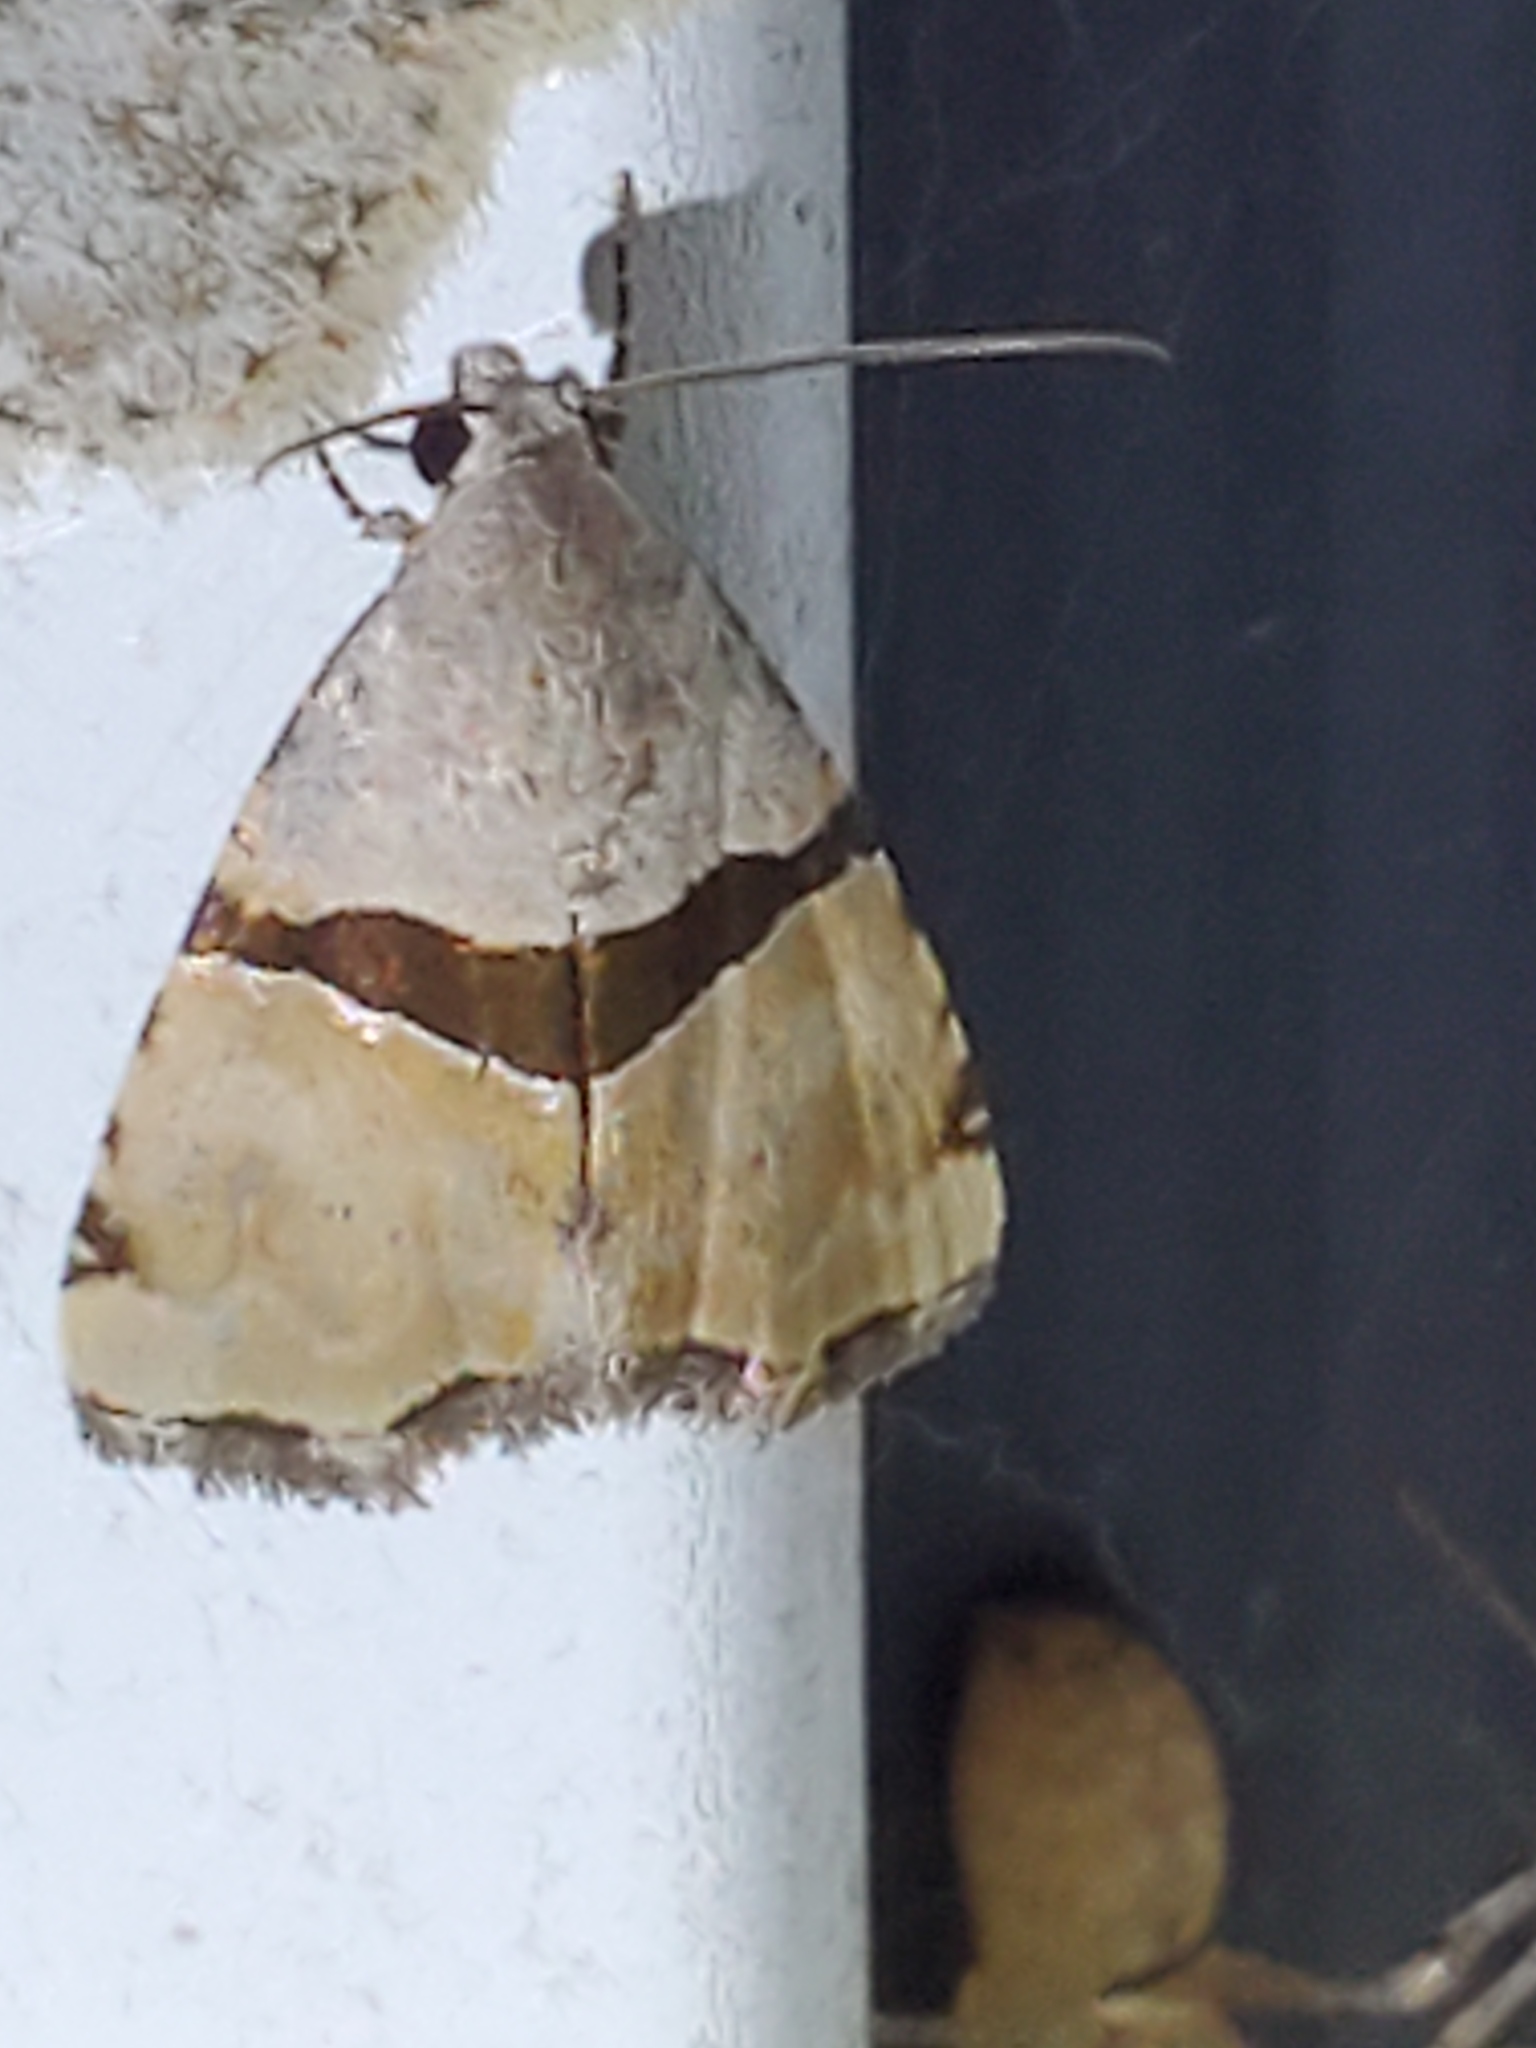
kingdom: Animalia
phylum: Arthropoda
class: Insecta
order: Lepidoptera
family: Noctuidae
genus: Cobubatha
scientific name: Cobubatha lixiva
